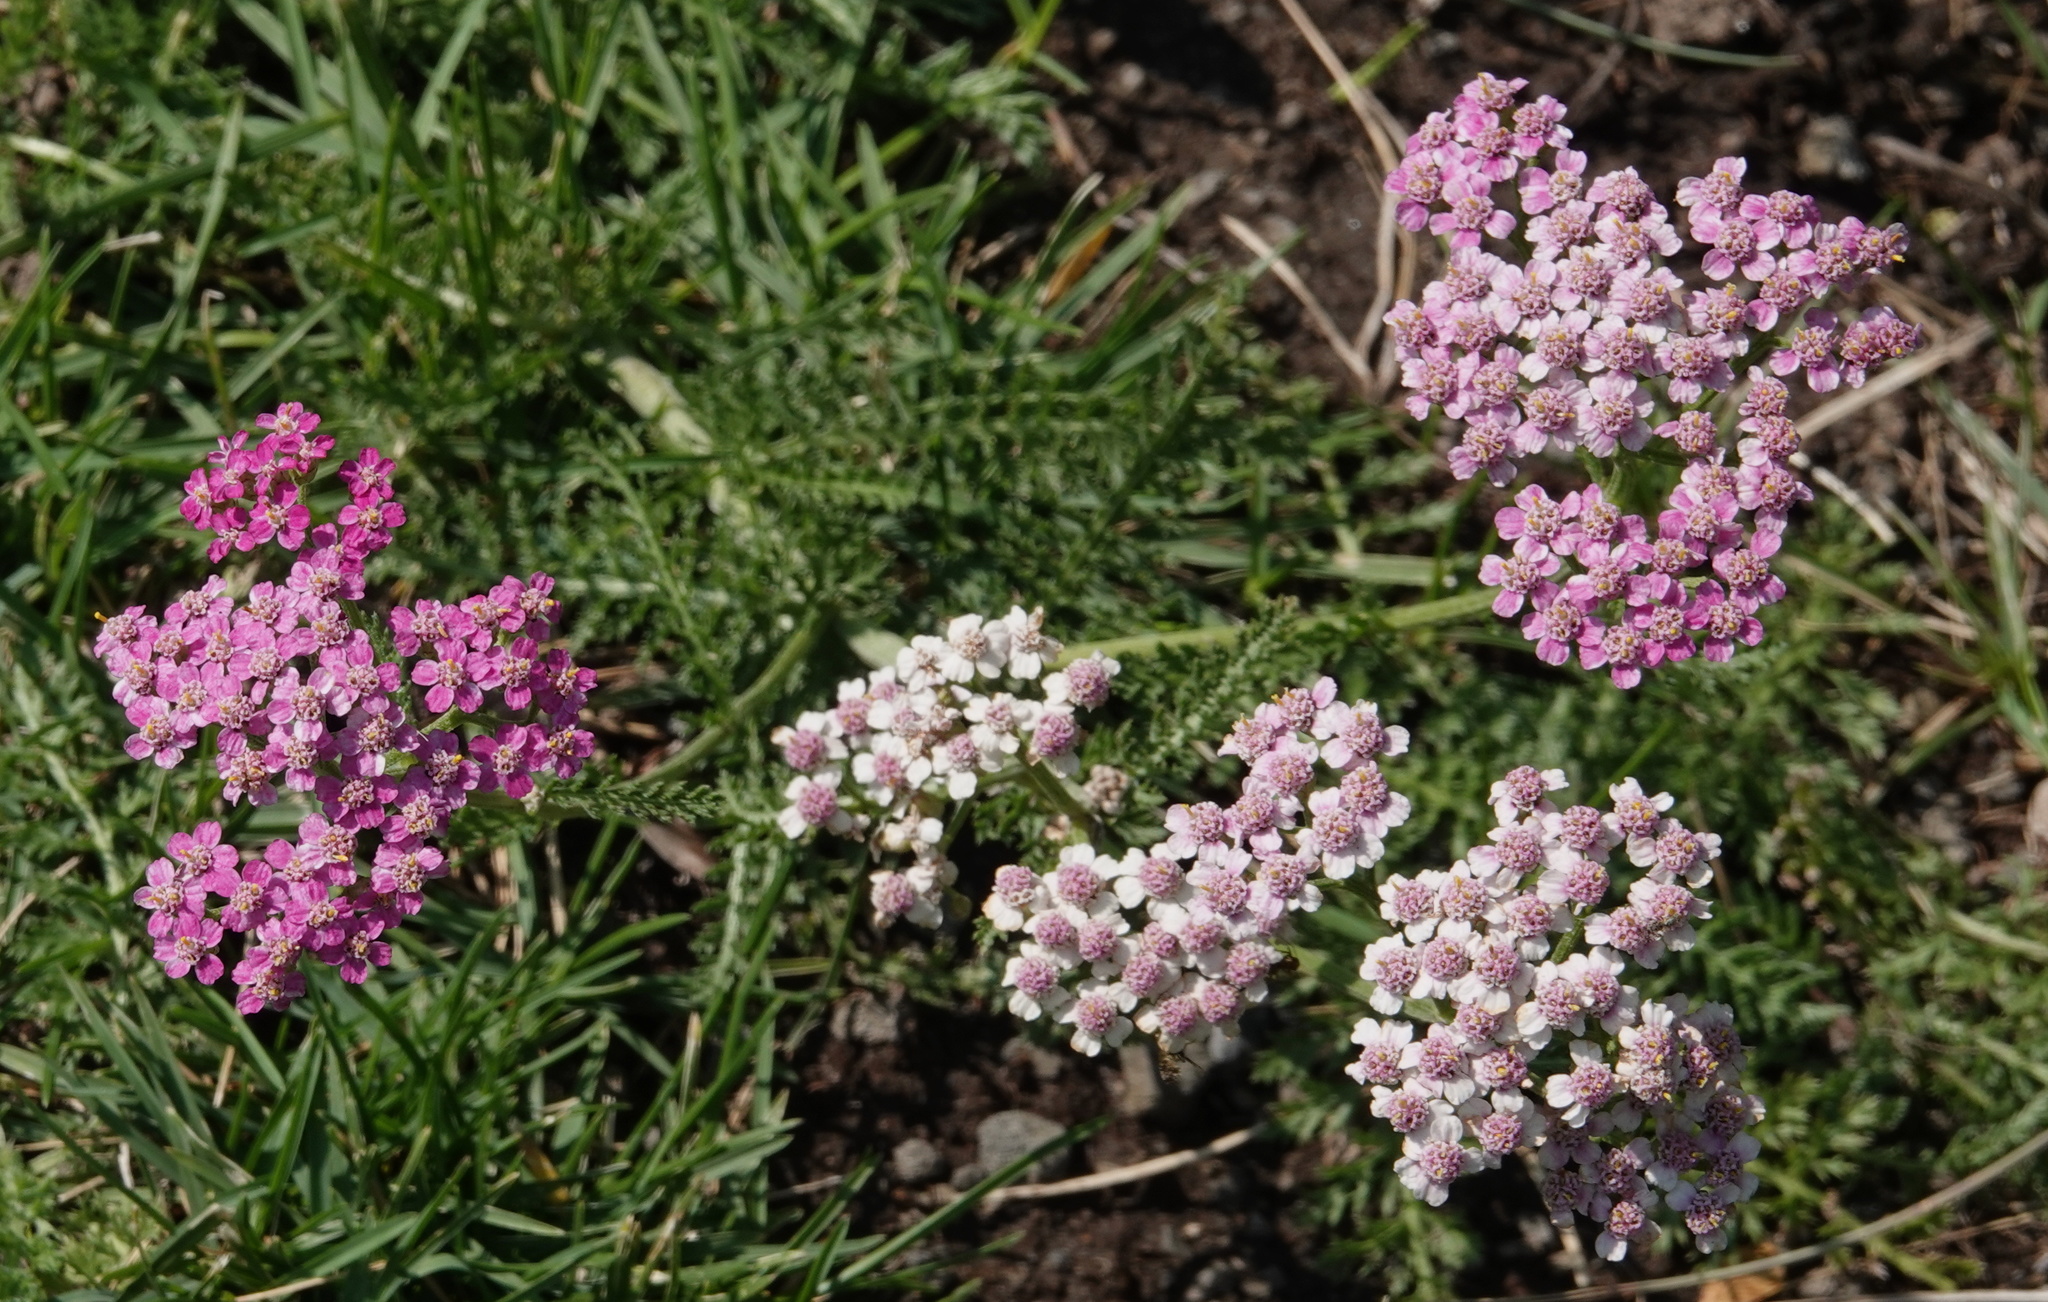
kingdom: Plantae
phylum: Tracheophyta
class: Magnoliopsida
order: Asterales
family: Asteraceae
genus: Achillea
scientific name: Achillea millefolium
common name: Yarrow
